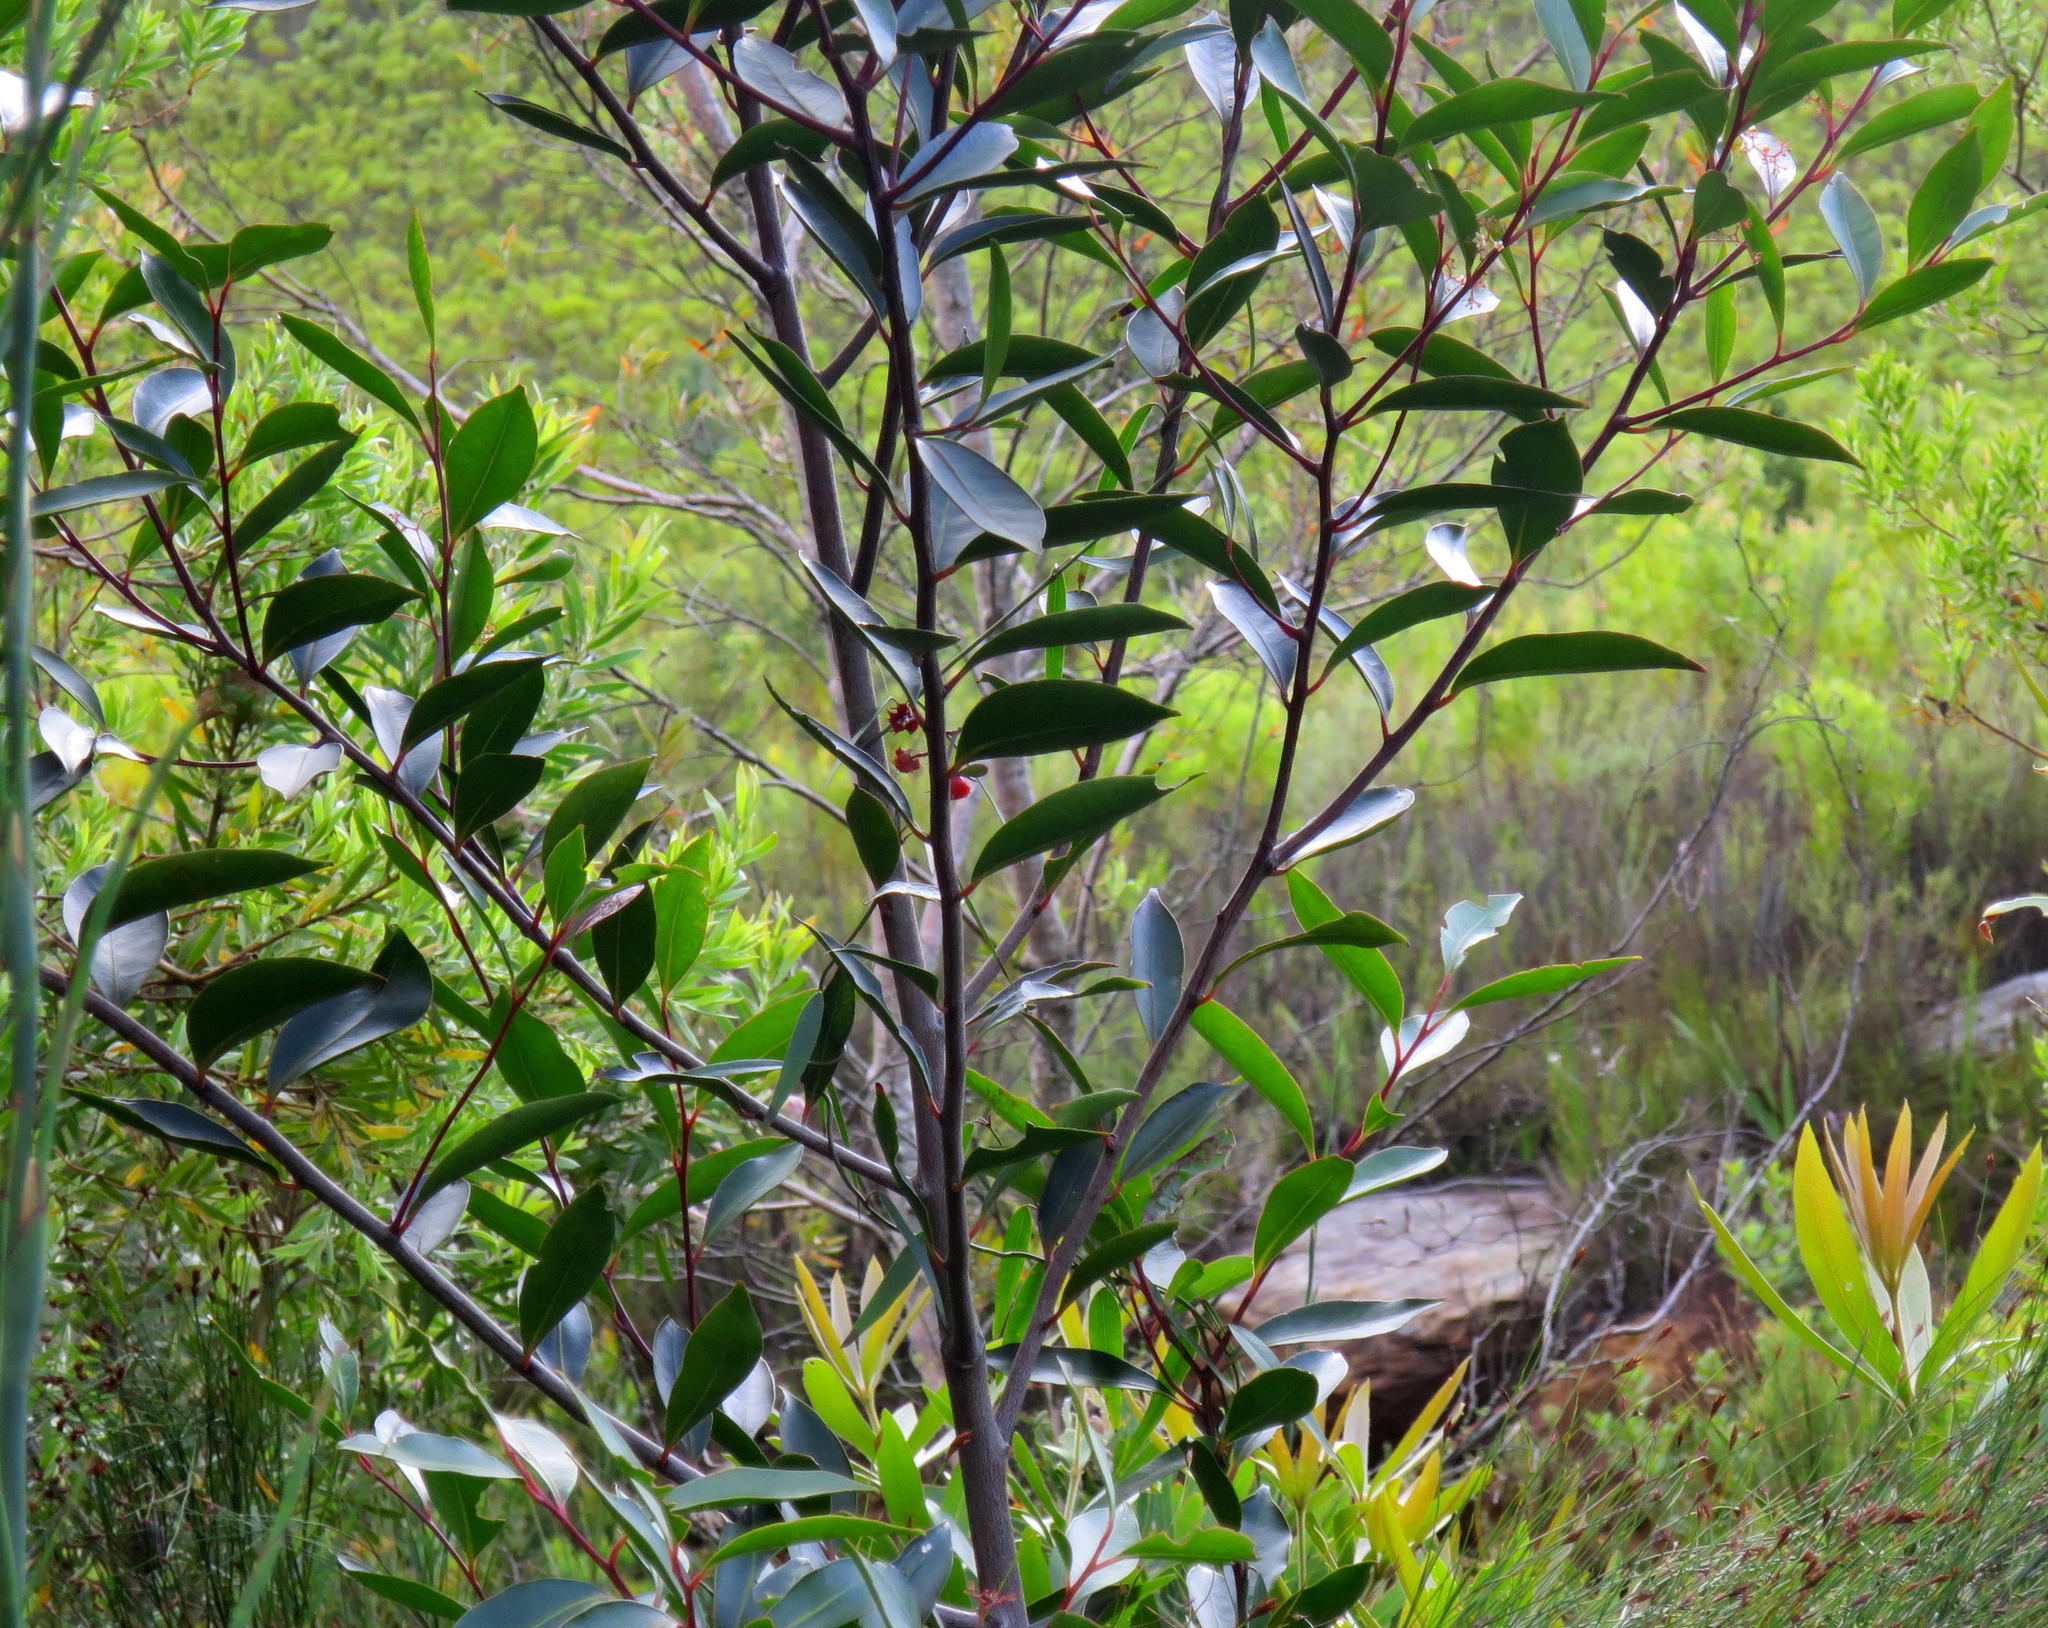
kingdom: Plantae
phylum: Tracheophyta
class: Magnoliopsida
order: Celastrales
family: Celastraceae
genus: Pterocelastrus
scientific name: Pterocelastrus rostratus
